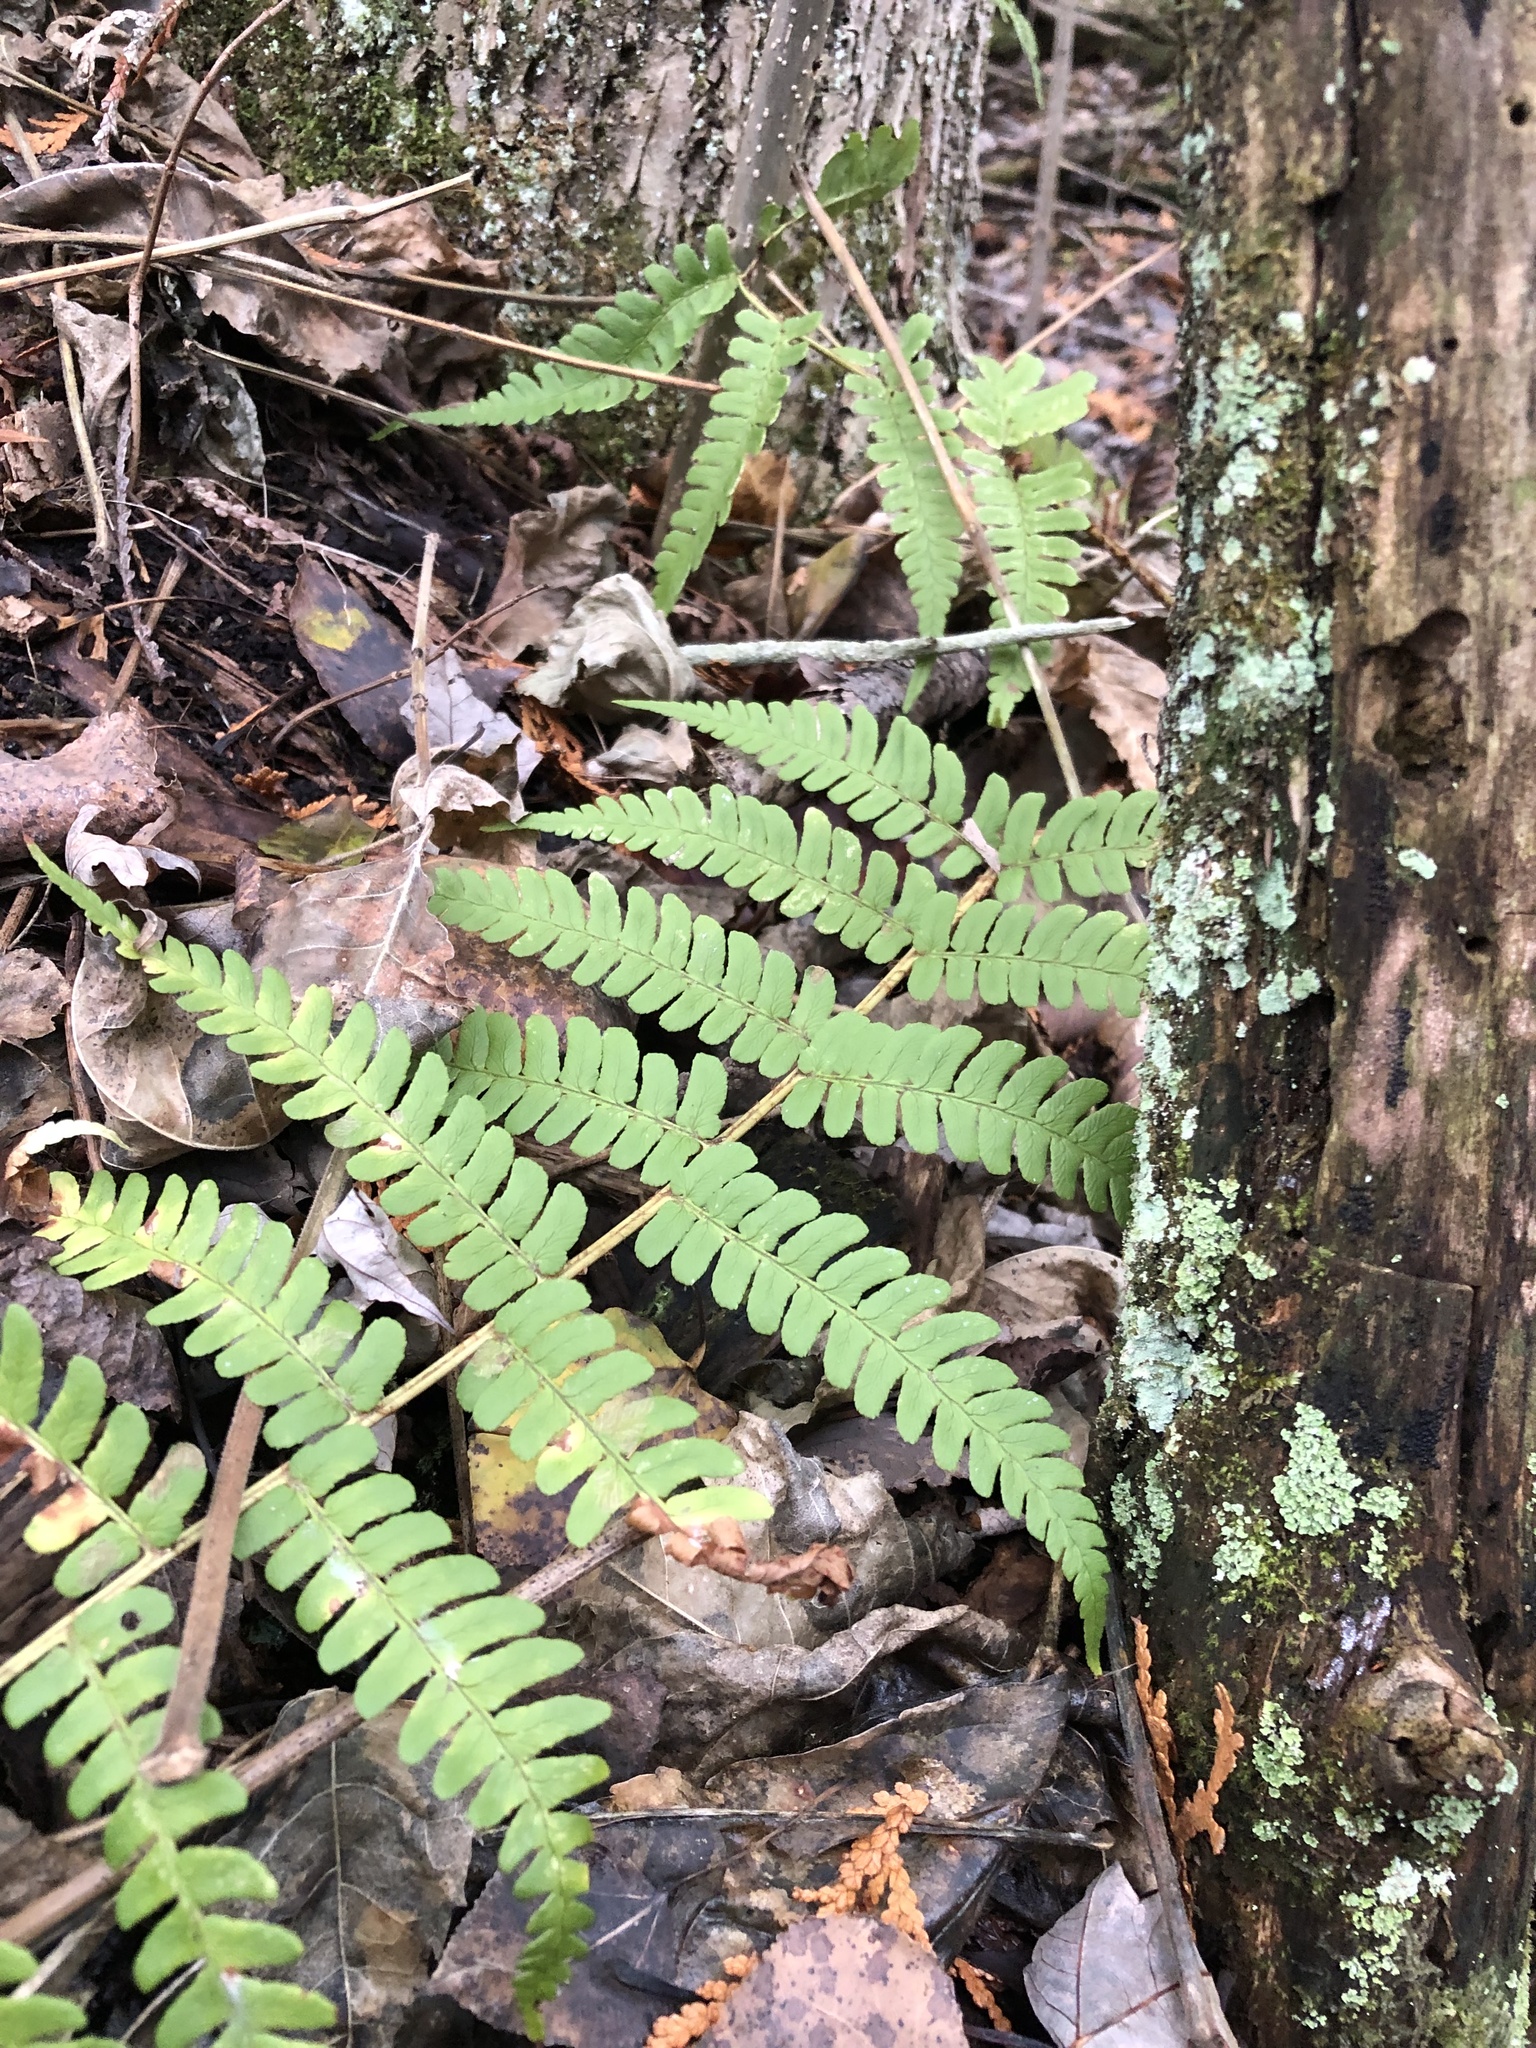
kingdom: Plantae
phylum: Tracheophyta
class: Polypodiopsida
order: Polypodiales
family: Dryopteridaceae
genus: Dryopteris
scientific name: Dryopteris marginalis
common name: Marginal wood fern
